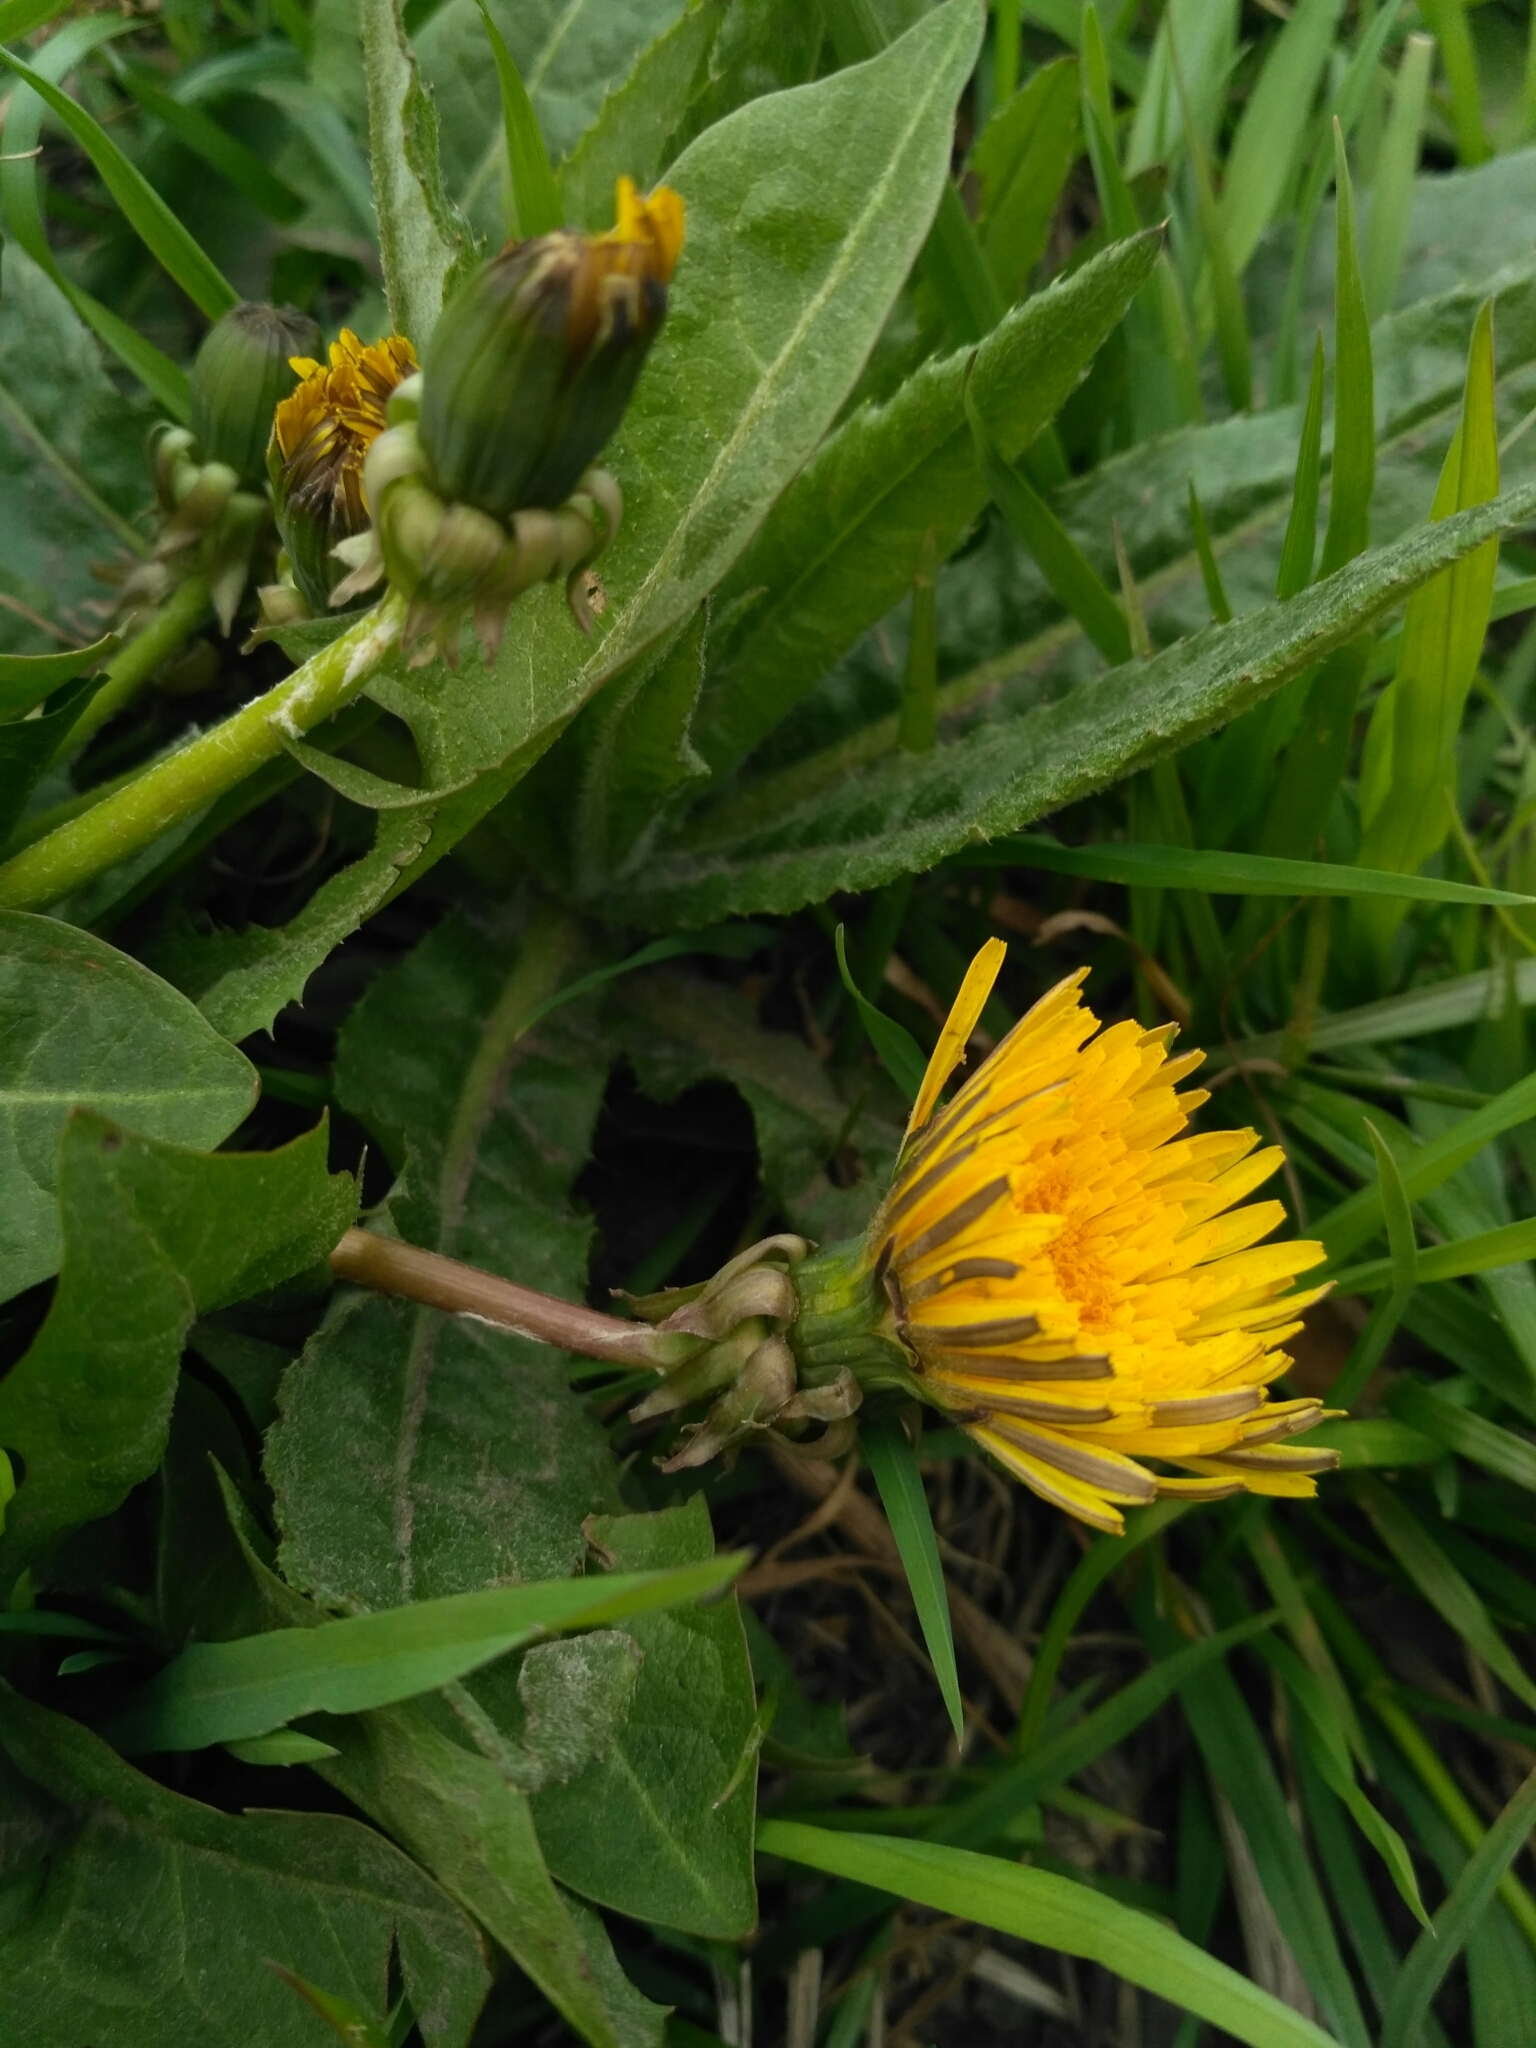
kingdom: Plantae
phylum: Tracheophyta
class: Magnoliopsida
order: Asterales
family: Asteraceae
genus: Taraxacum
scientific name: Taraxacum officinale
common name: Common dandelion
